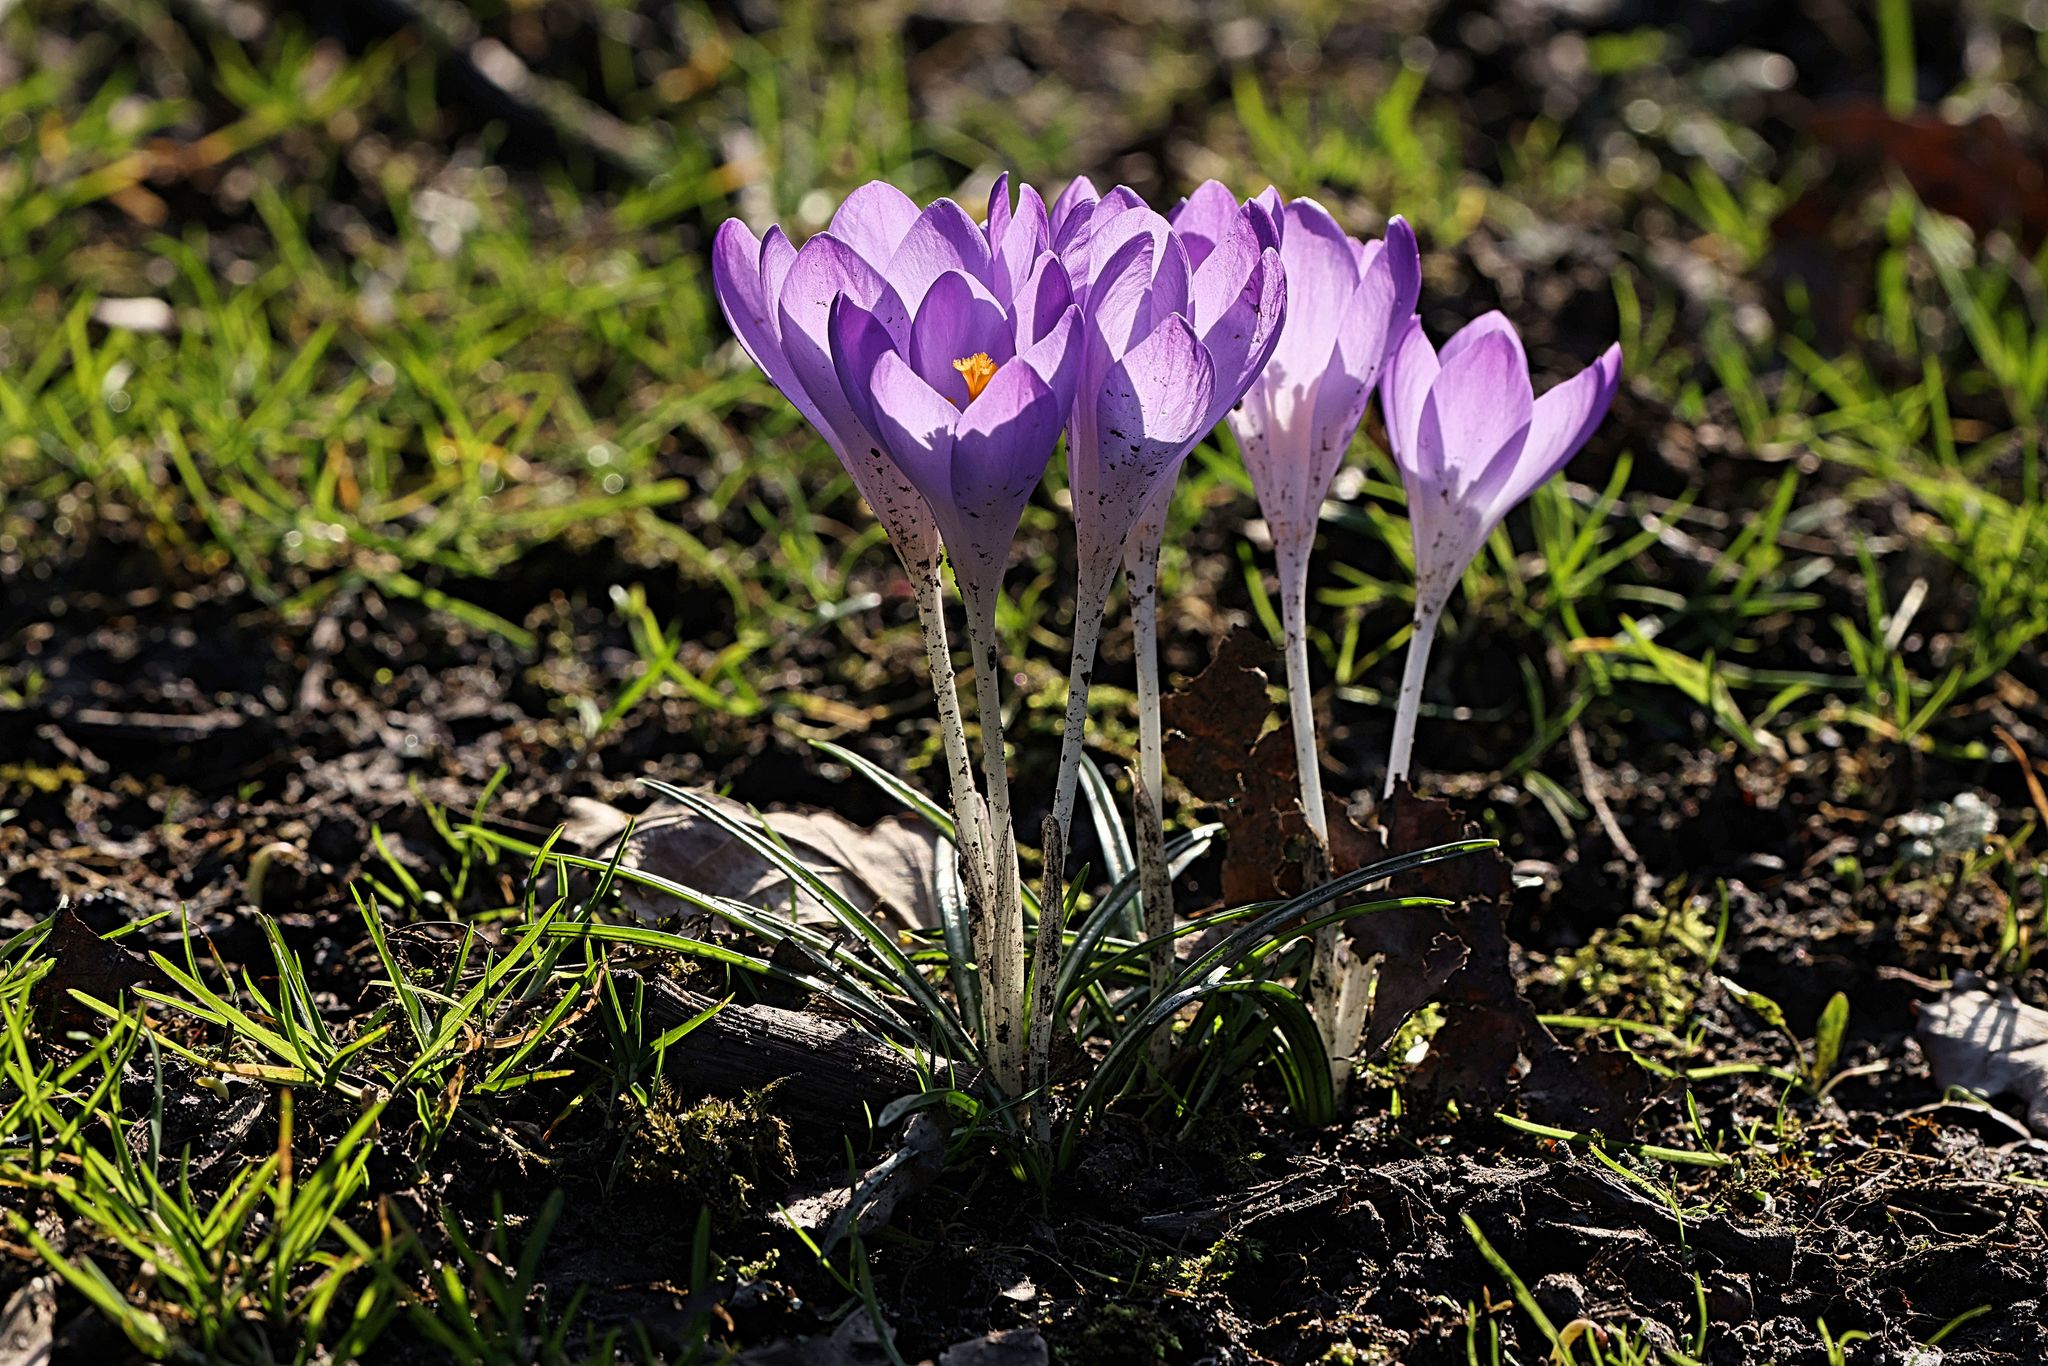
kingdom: Plantae
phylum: Tracheophyta
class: Liliopsida
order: Asparagales
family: Iridaceae
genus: Crocus
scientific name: Crocus tommasinianus
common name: Early crocus
